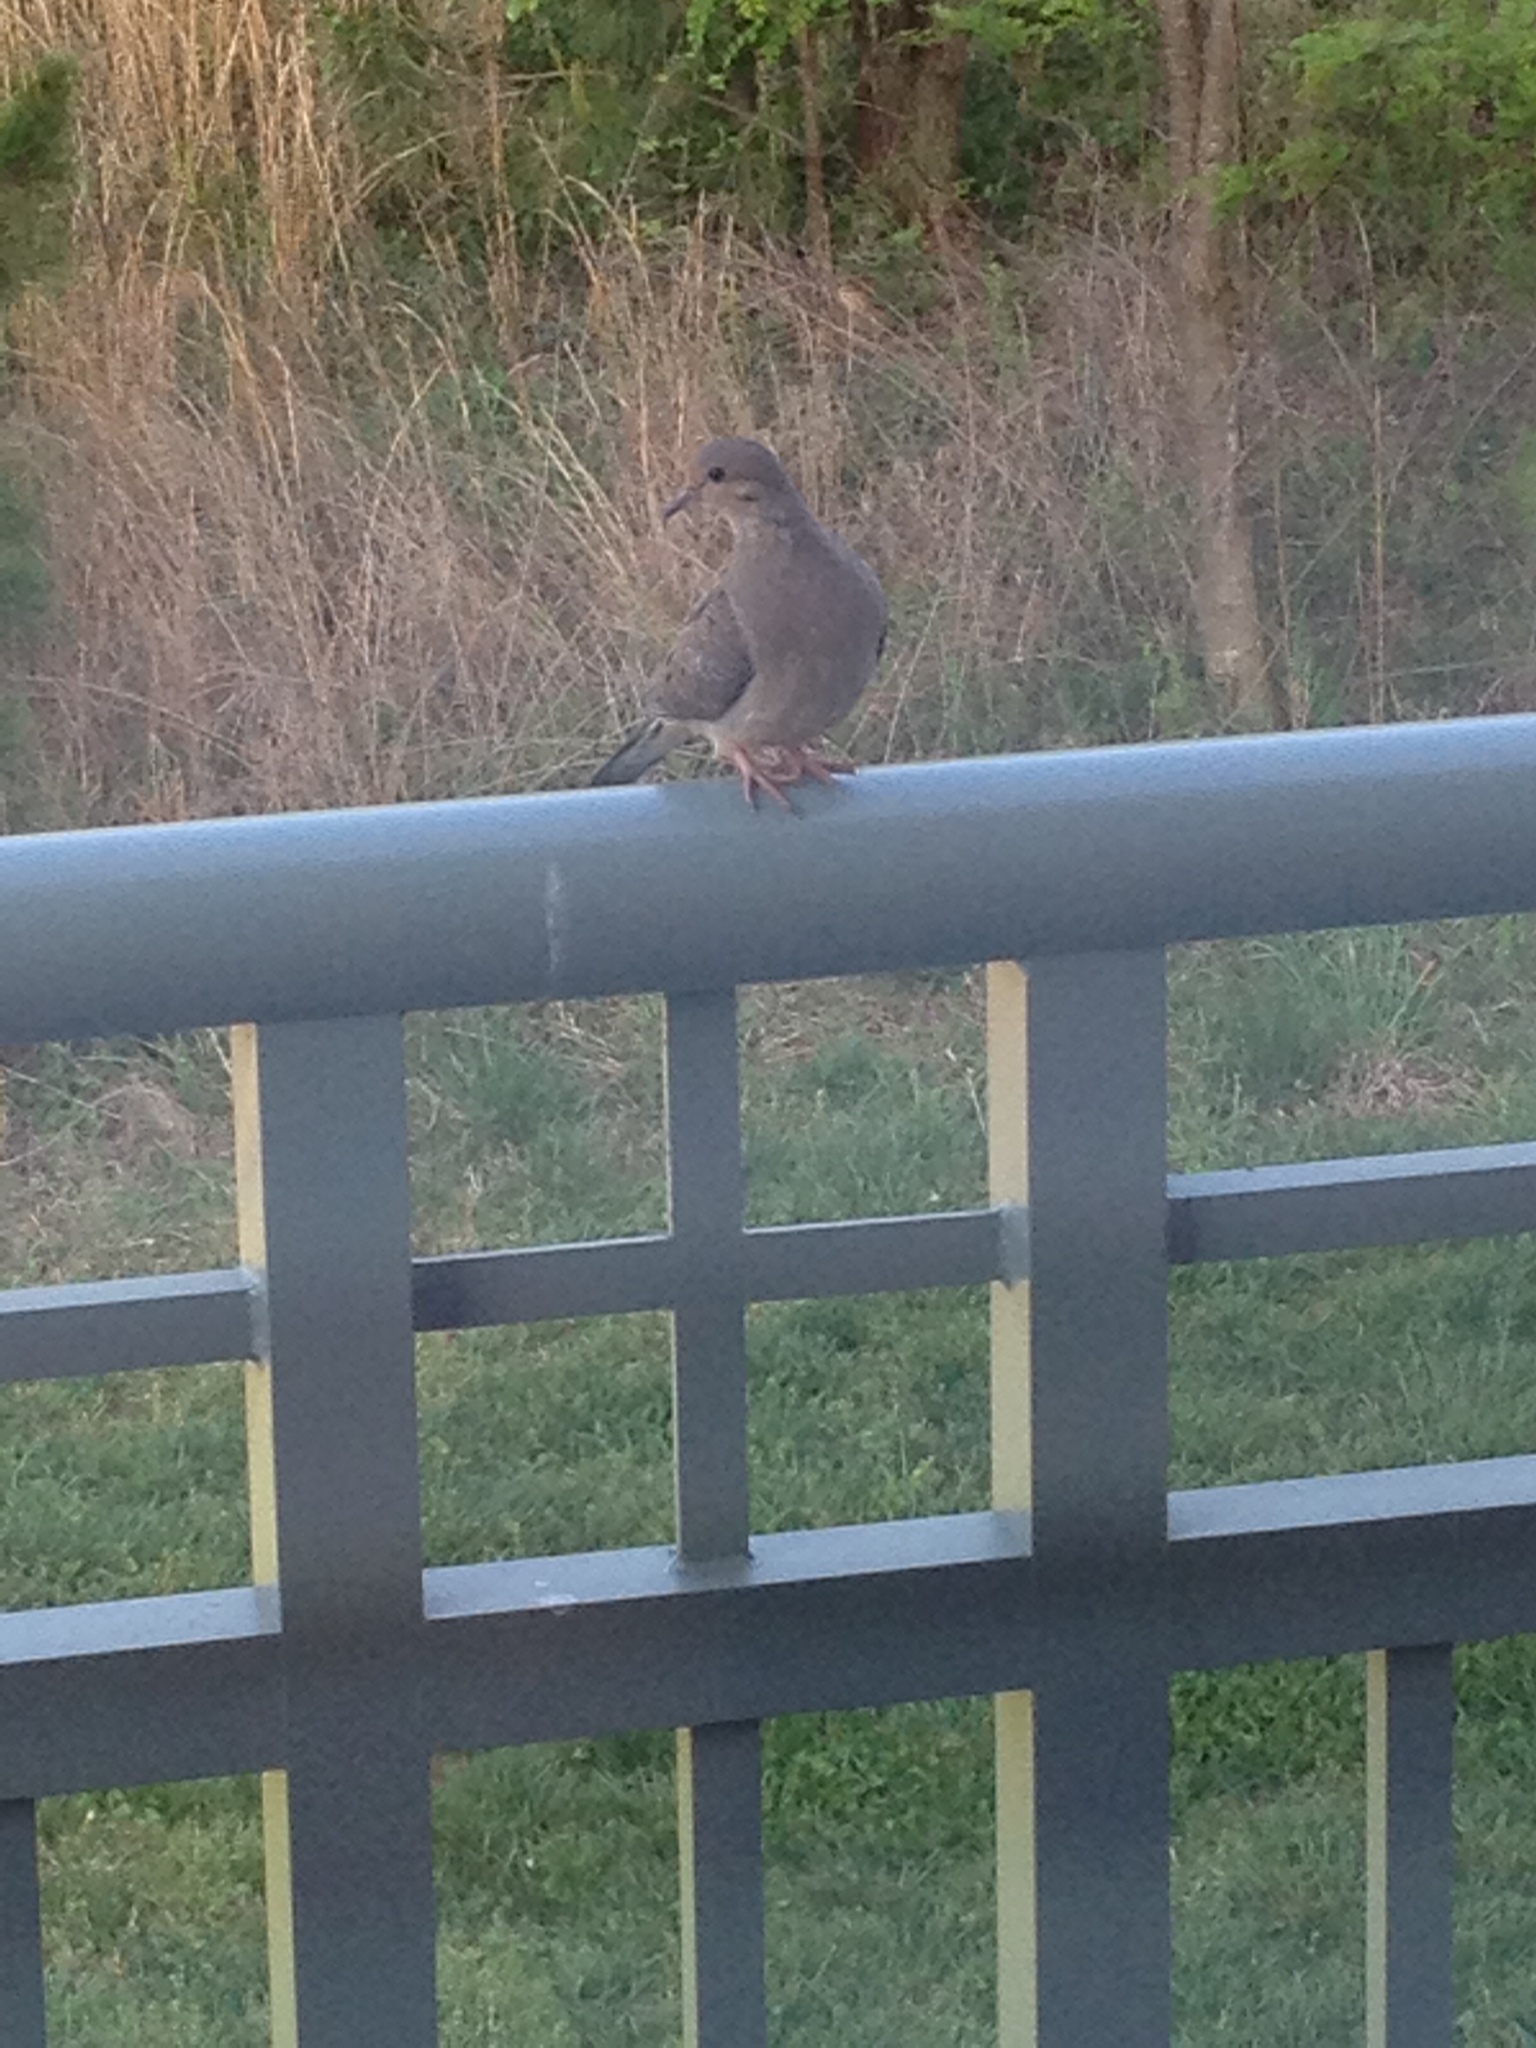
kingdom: Animalia
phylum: Chordata
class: Aves
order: Columbiformes
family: Columbidae
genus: Zenaida
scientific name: Zenaida macroura
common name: Mourning dove
